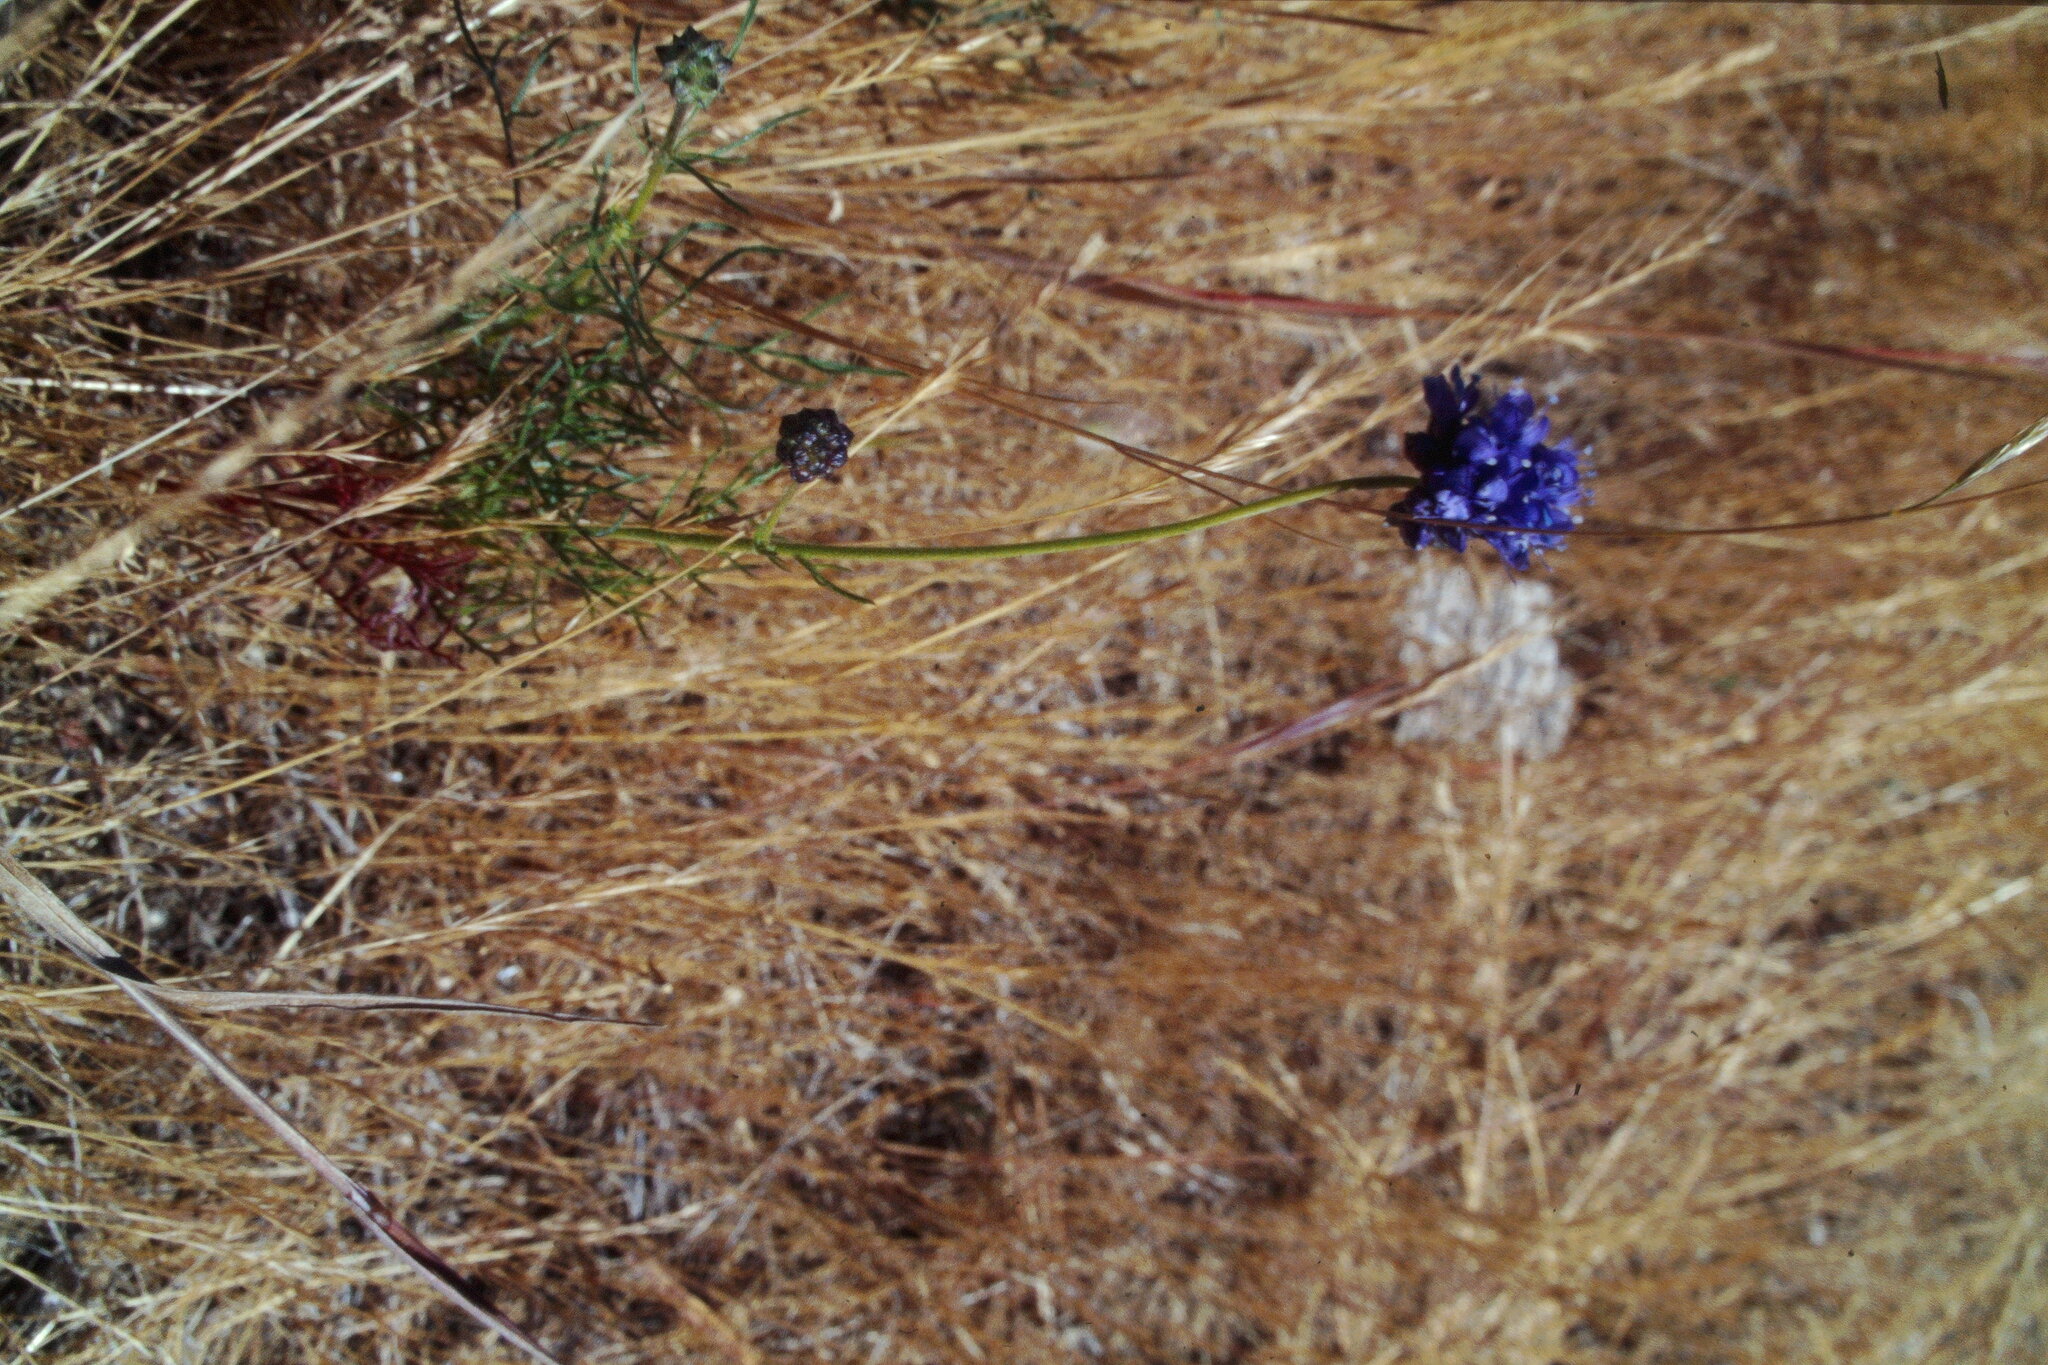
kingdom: Plantae
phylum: Tracheophyta
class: Magnoliopsida
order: Ericales
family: Polemoniaceae
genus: Gilia
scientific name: Gilia capitata
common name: Bluehead gilia
